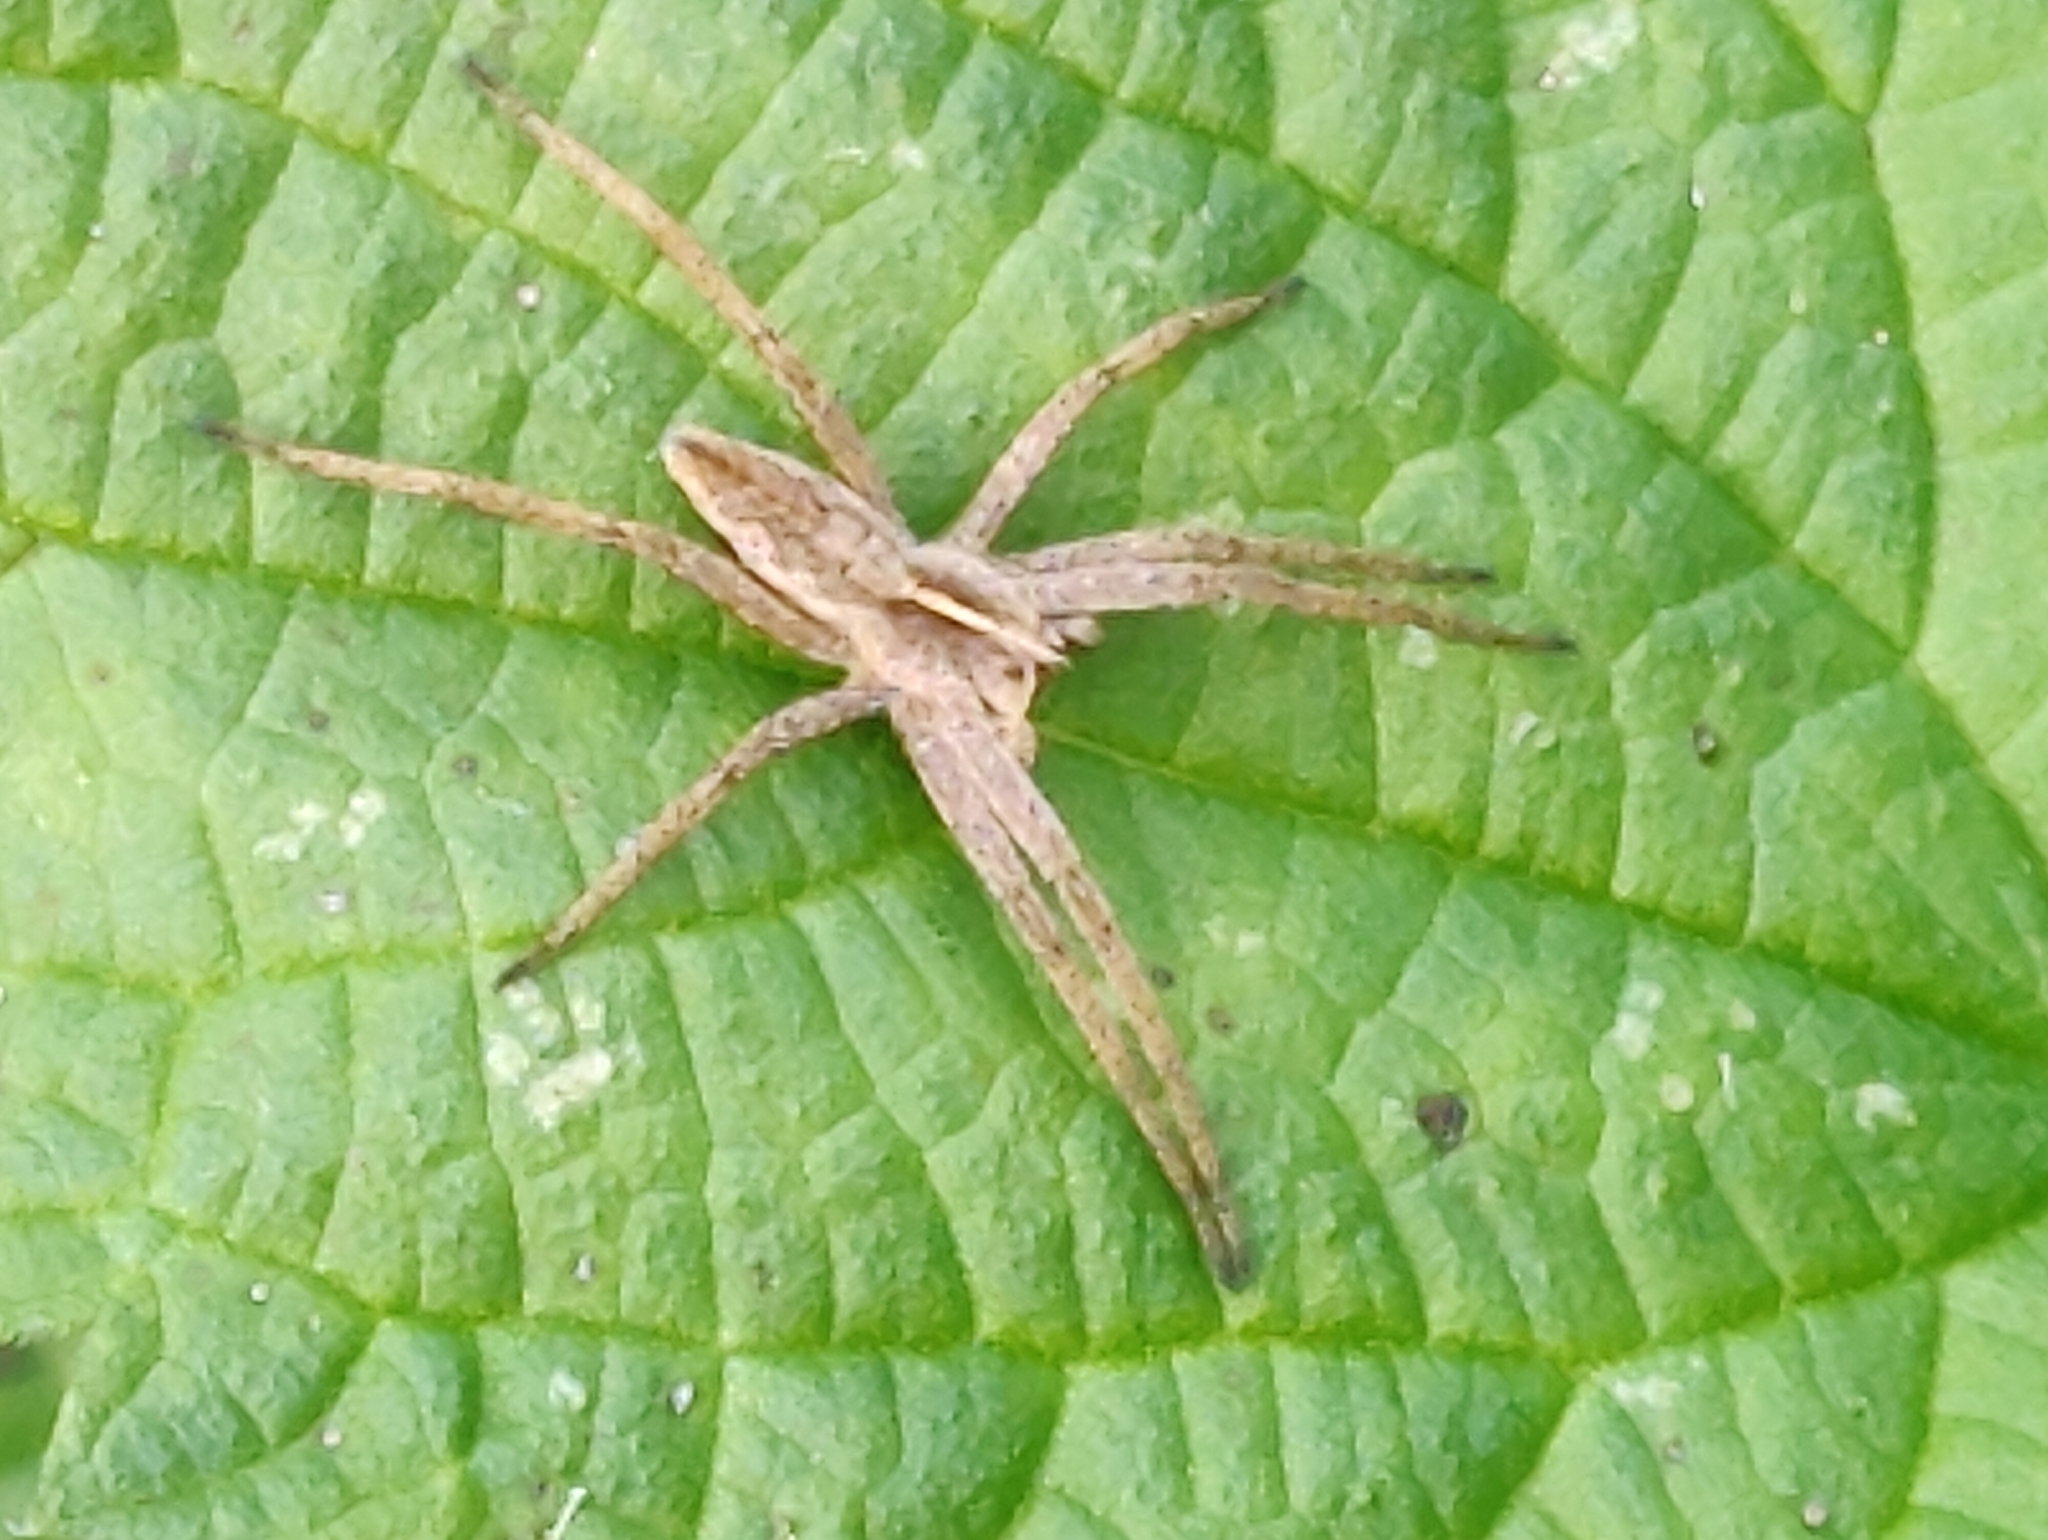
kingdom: Animalia
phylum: Arthropoda
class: Arachnida
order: Araneae
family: Pisauridae
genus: Pisaura
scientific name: Pisaura mirabilis
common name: Tent spider
